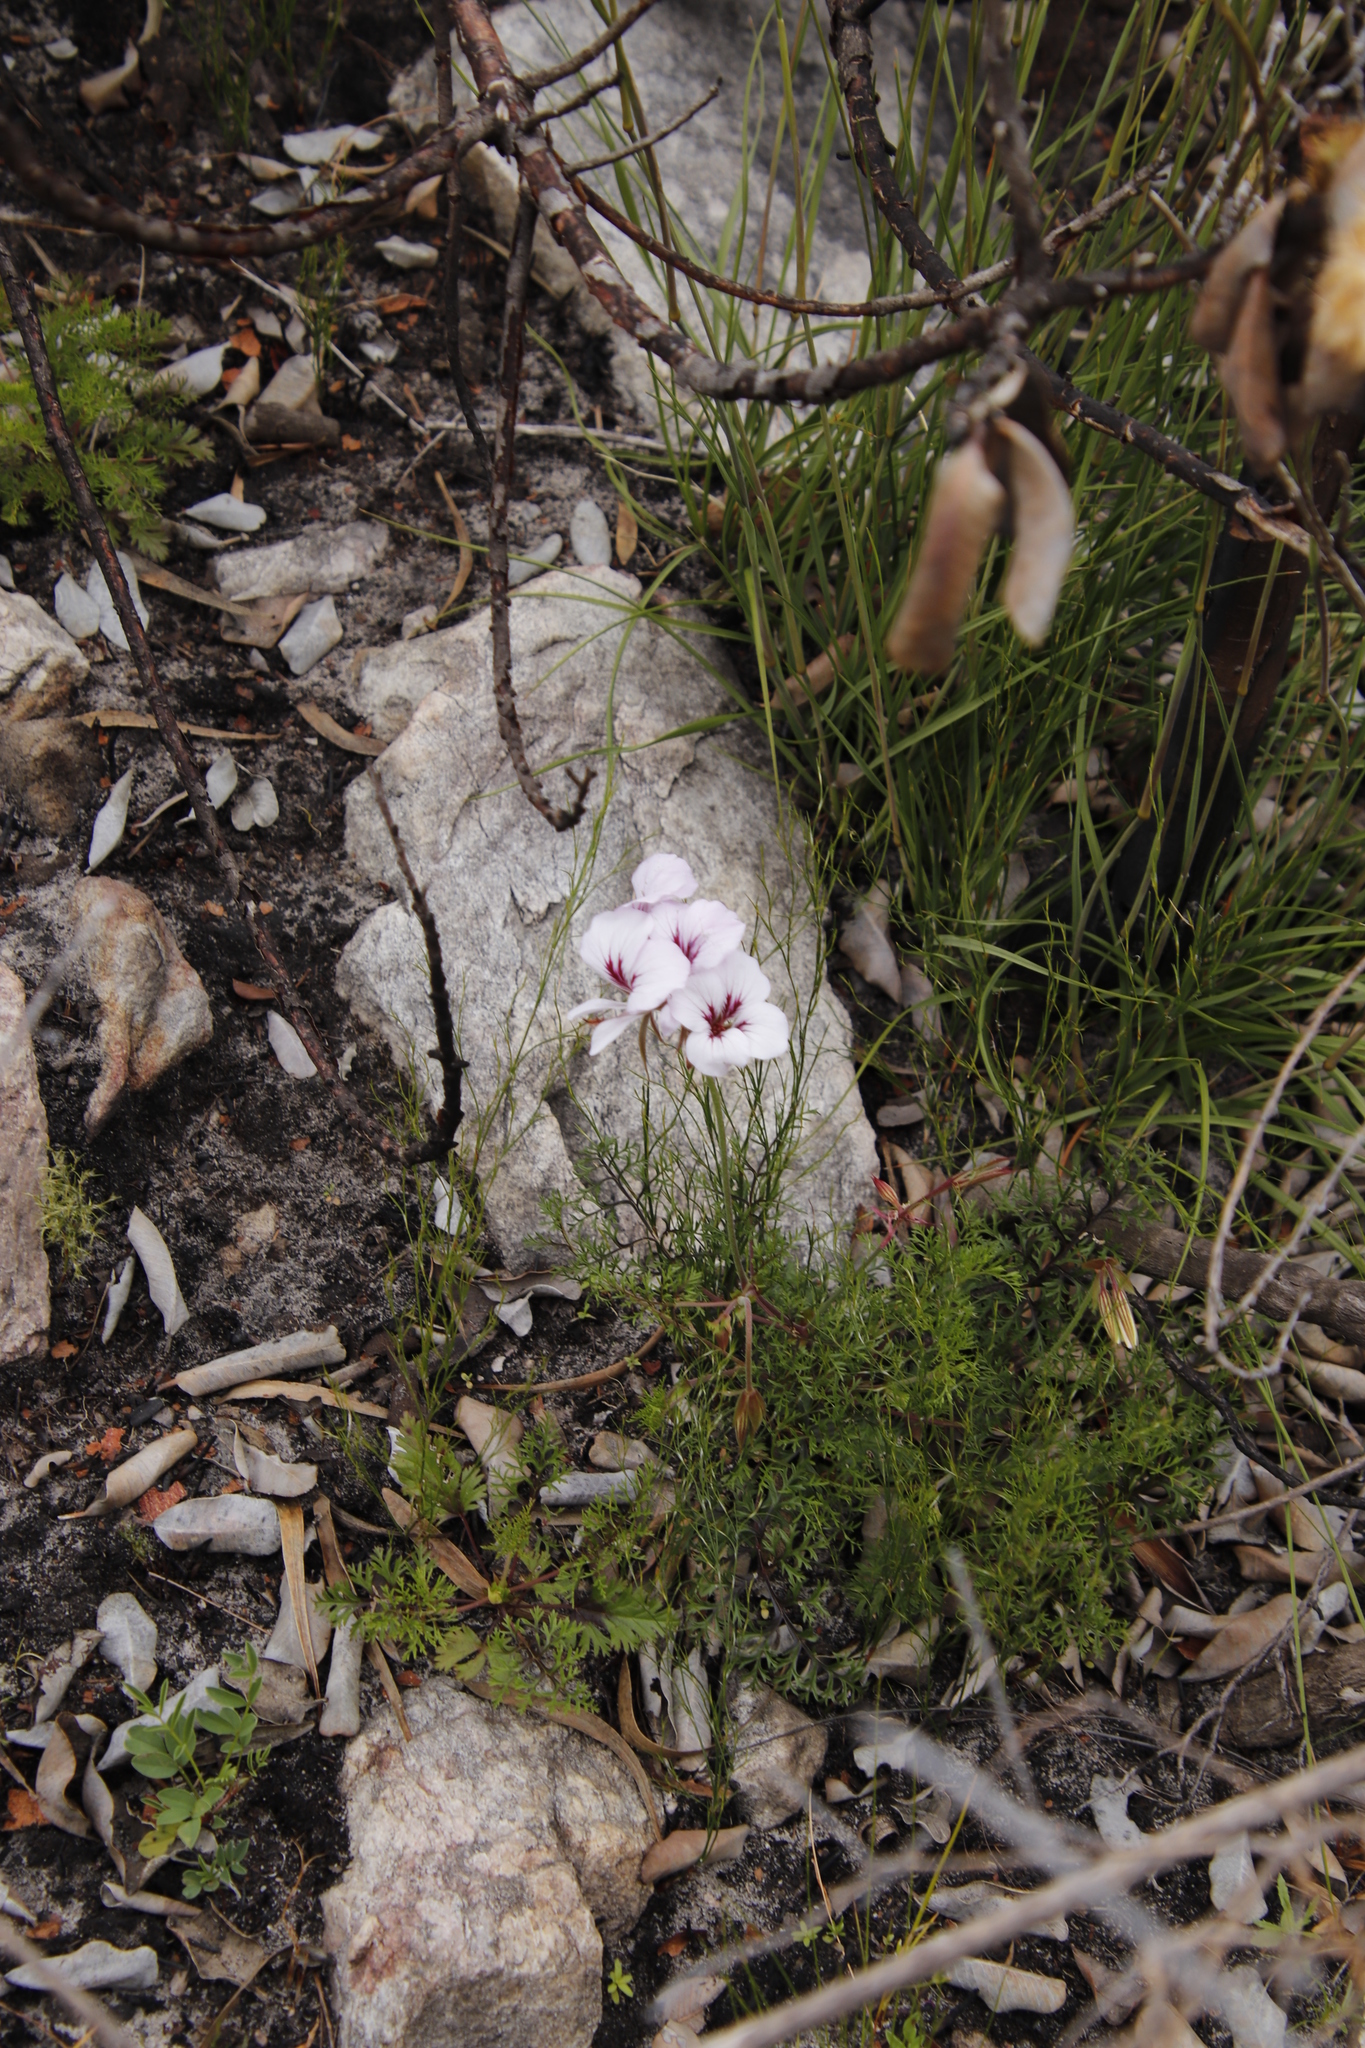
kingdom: Plantae
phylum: Tracheophyta
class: Magnoliopsida
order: Geraniales
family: Geraniaceae
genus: Pelargonium
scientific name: Pelargonium myrrhifolium
